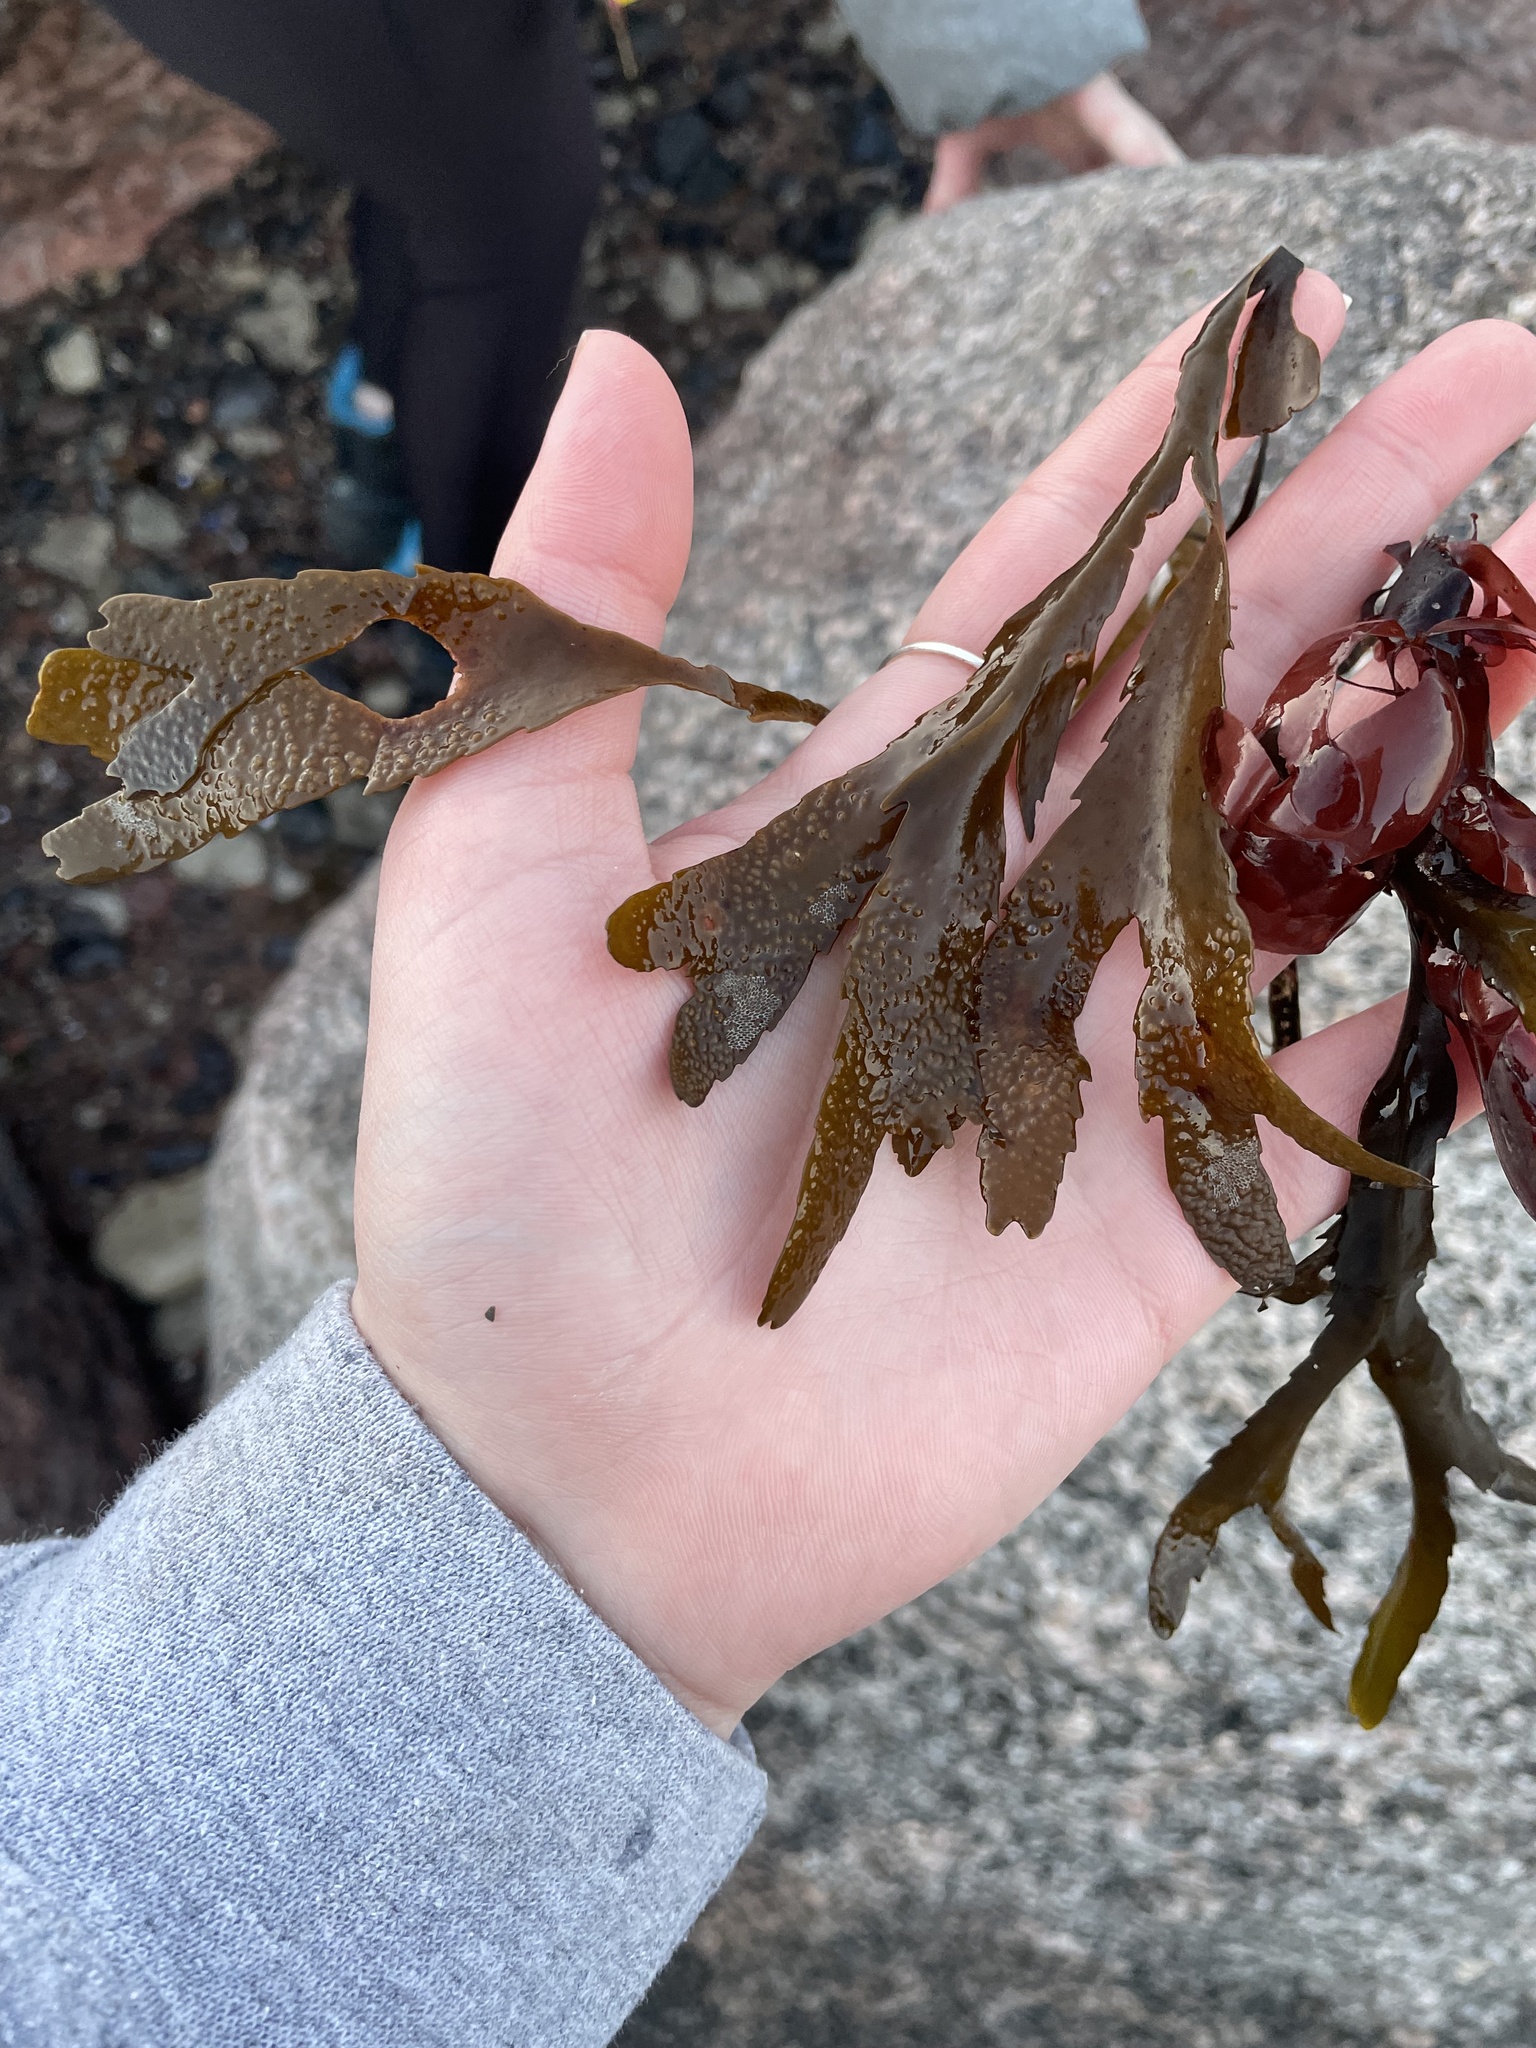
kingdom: Chromista
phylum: Ochrophyta
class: Phaeophyceae
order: Fucales
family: Fucaceae
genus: Fucus
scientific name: Fucus serratus
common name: Toothed wrack
